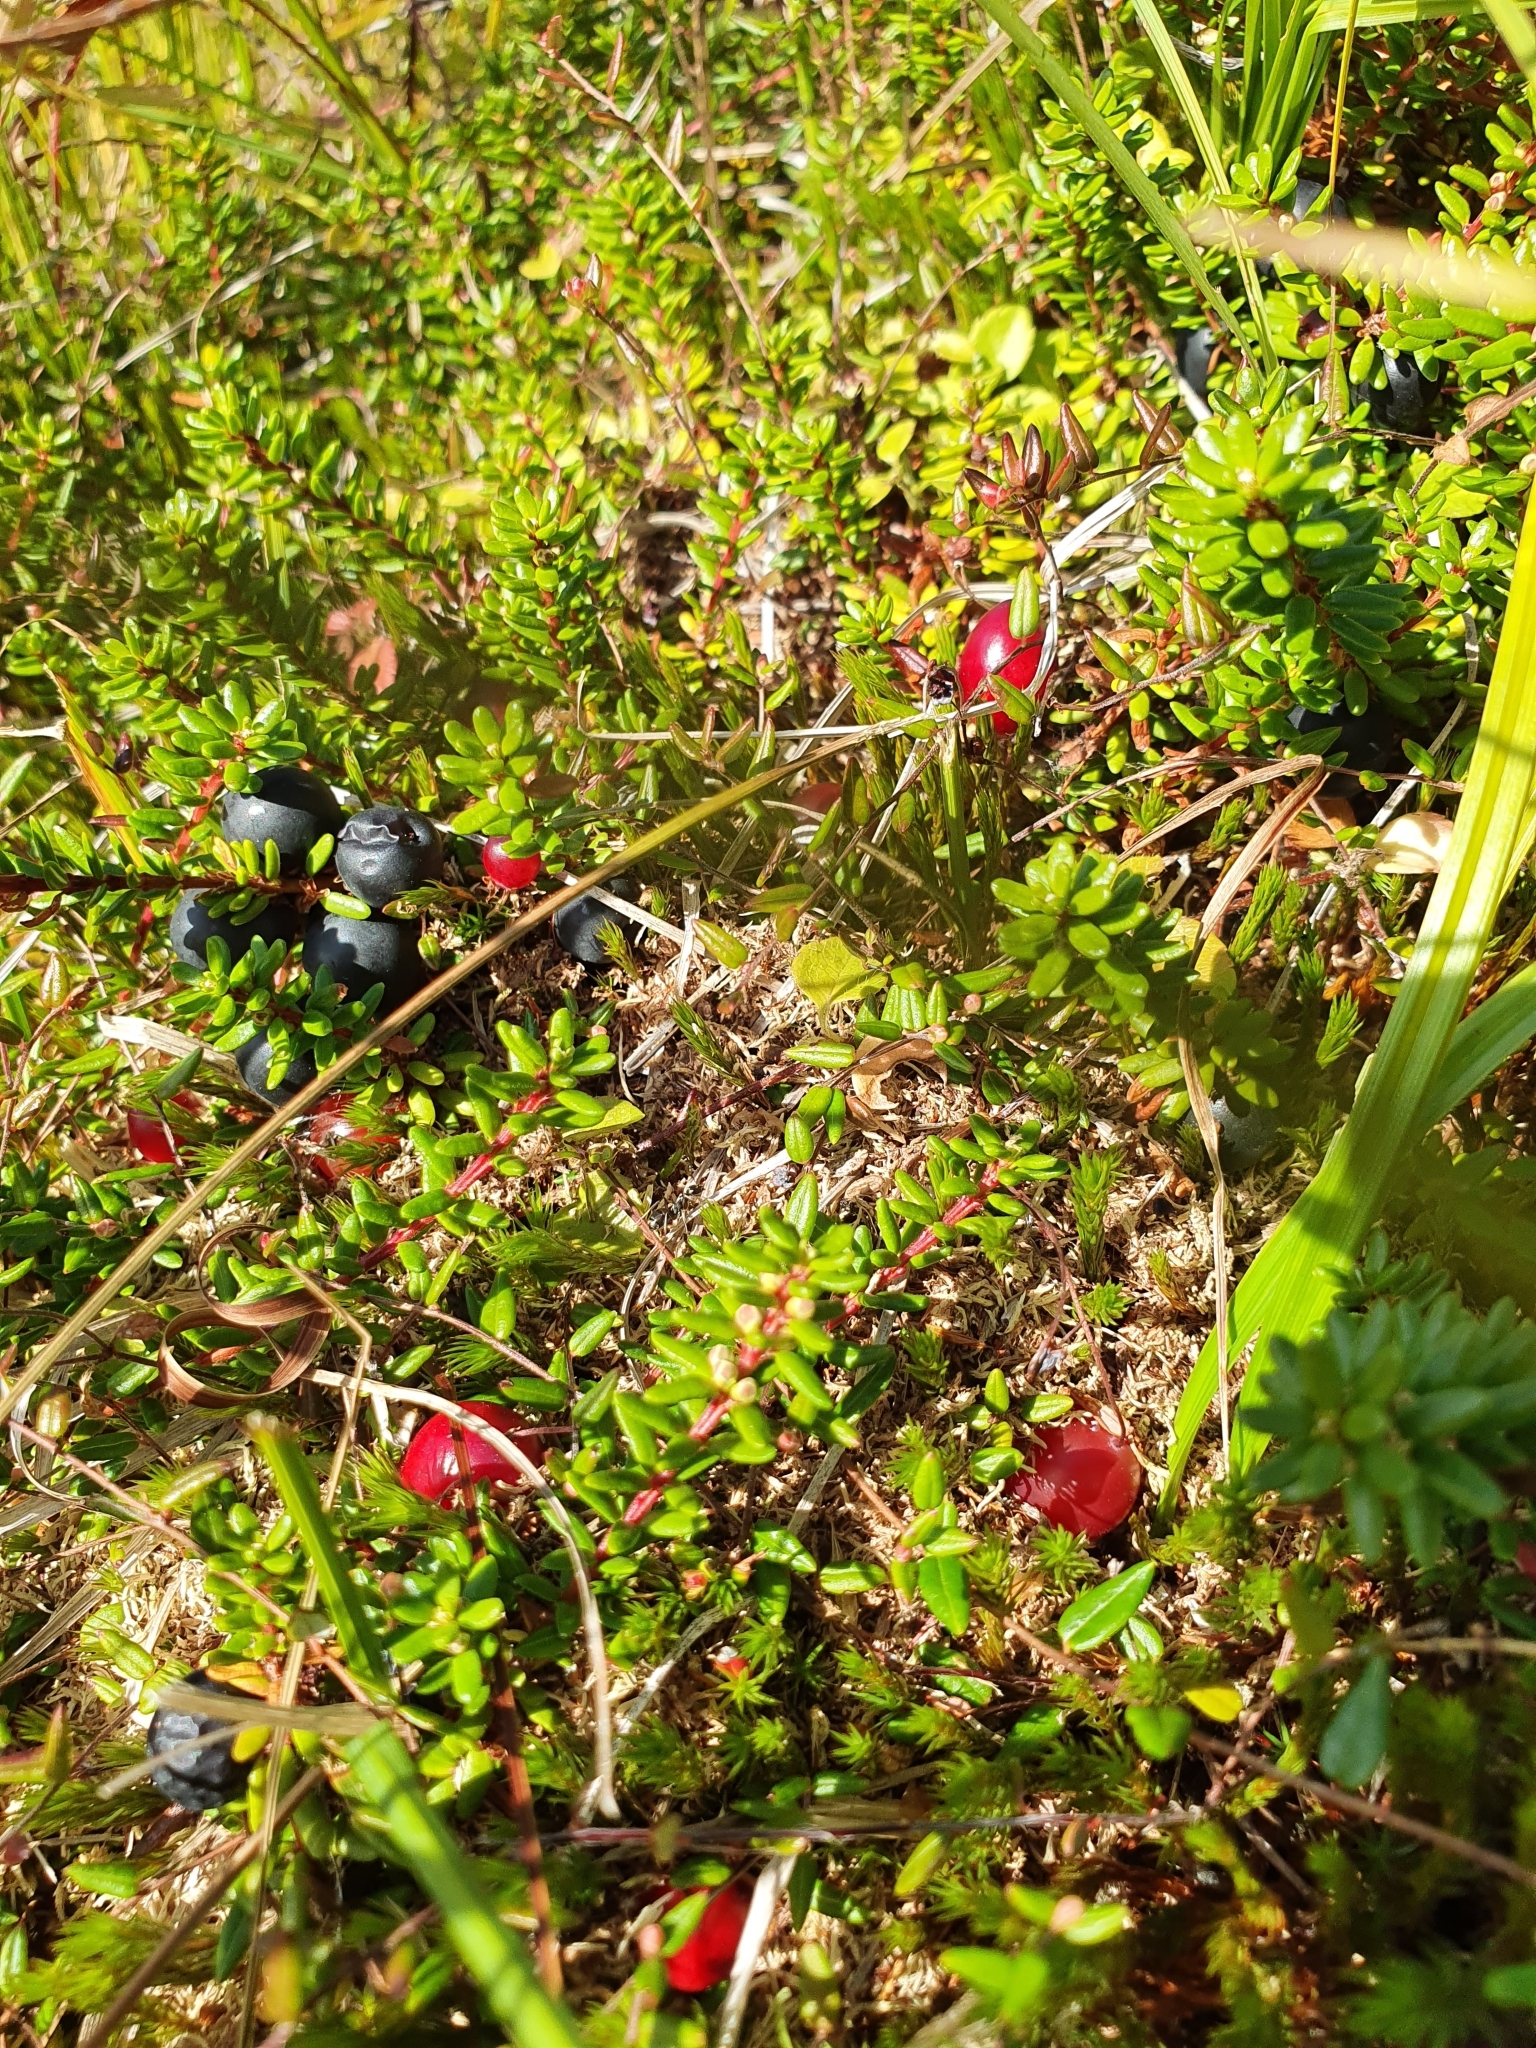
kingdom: Plantae
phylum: Tracheophyta
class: Magnoliopsida
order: Ericales
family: Ericaceae
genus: Vaccinium
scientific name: Vaccinium microcarpum
